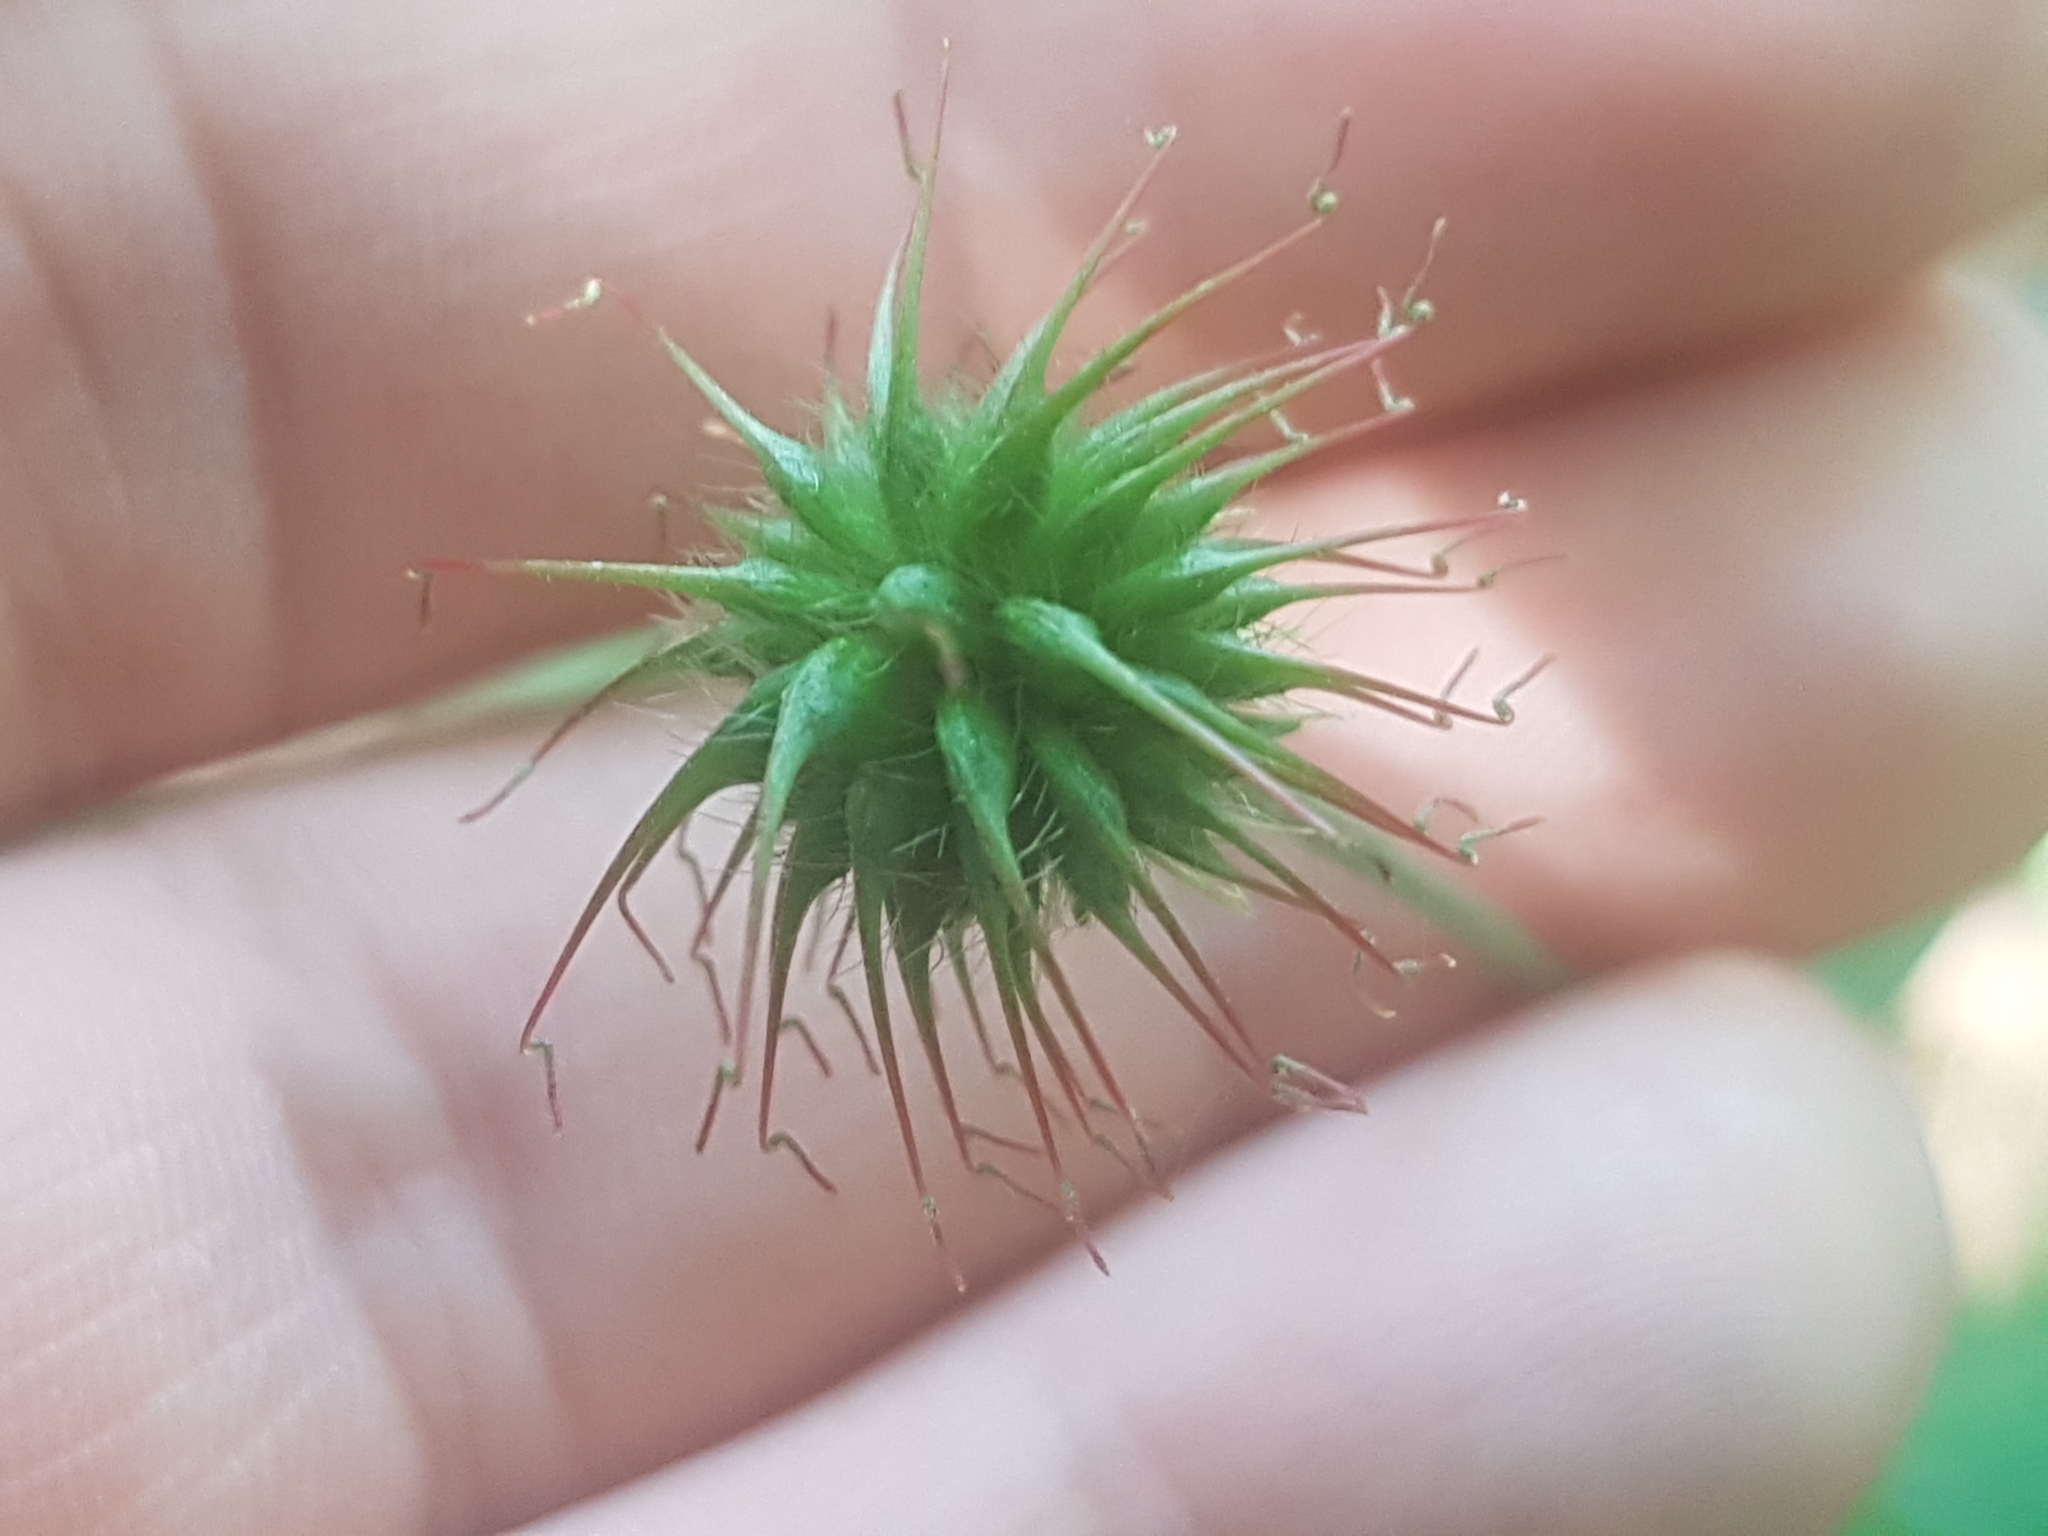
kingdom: Plantae
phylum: Tracheophyta
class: Magnoliopsida
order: Rosales
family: Rosaceae
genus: Geum
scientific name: Geum urbanum
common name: Wood avens
